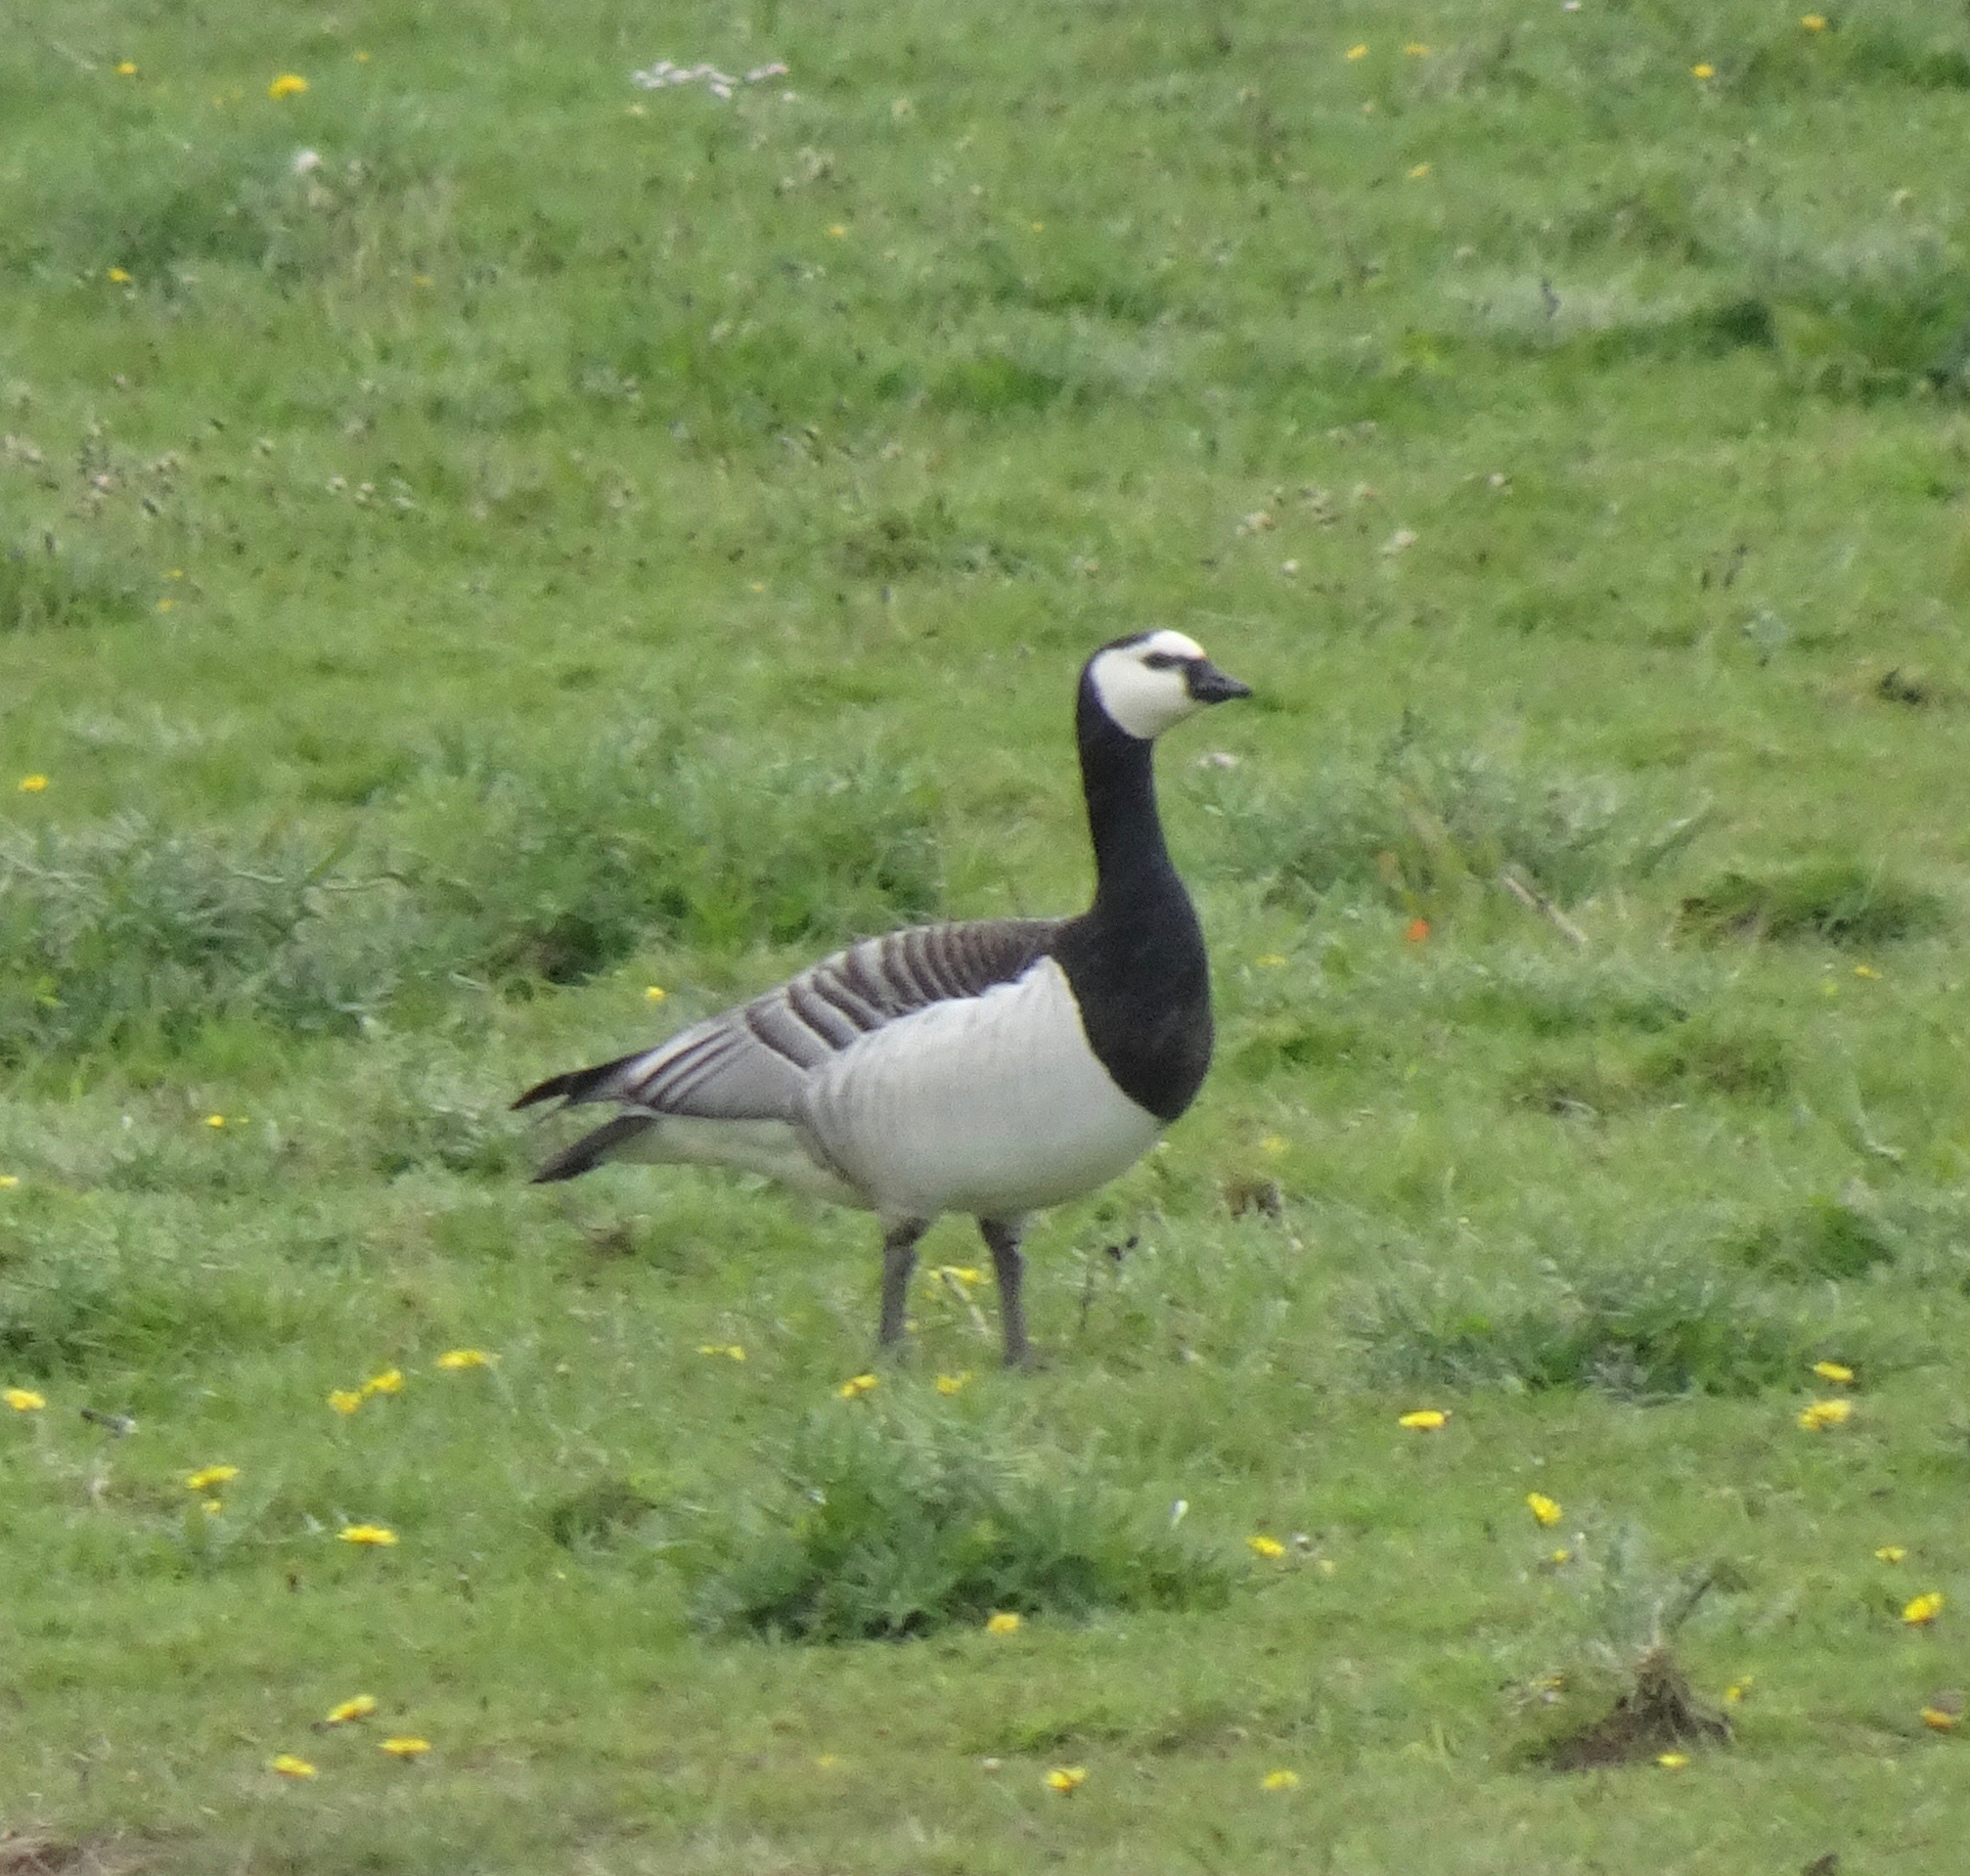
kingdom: Animalia
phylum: Chordata
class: Aves
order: Anseriformes
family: Anatidae
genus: Branta
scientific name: Branta leucopsis
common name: Barnacle goose
